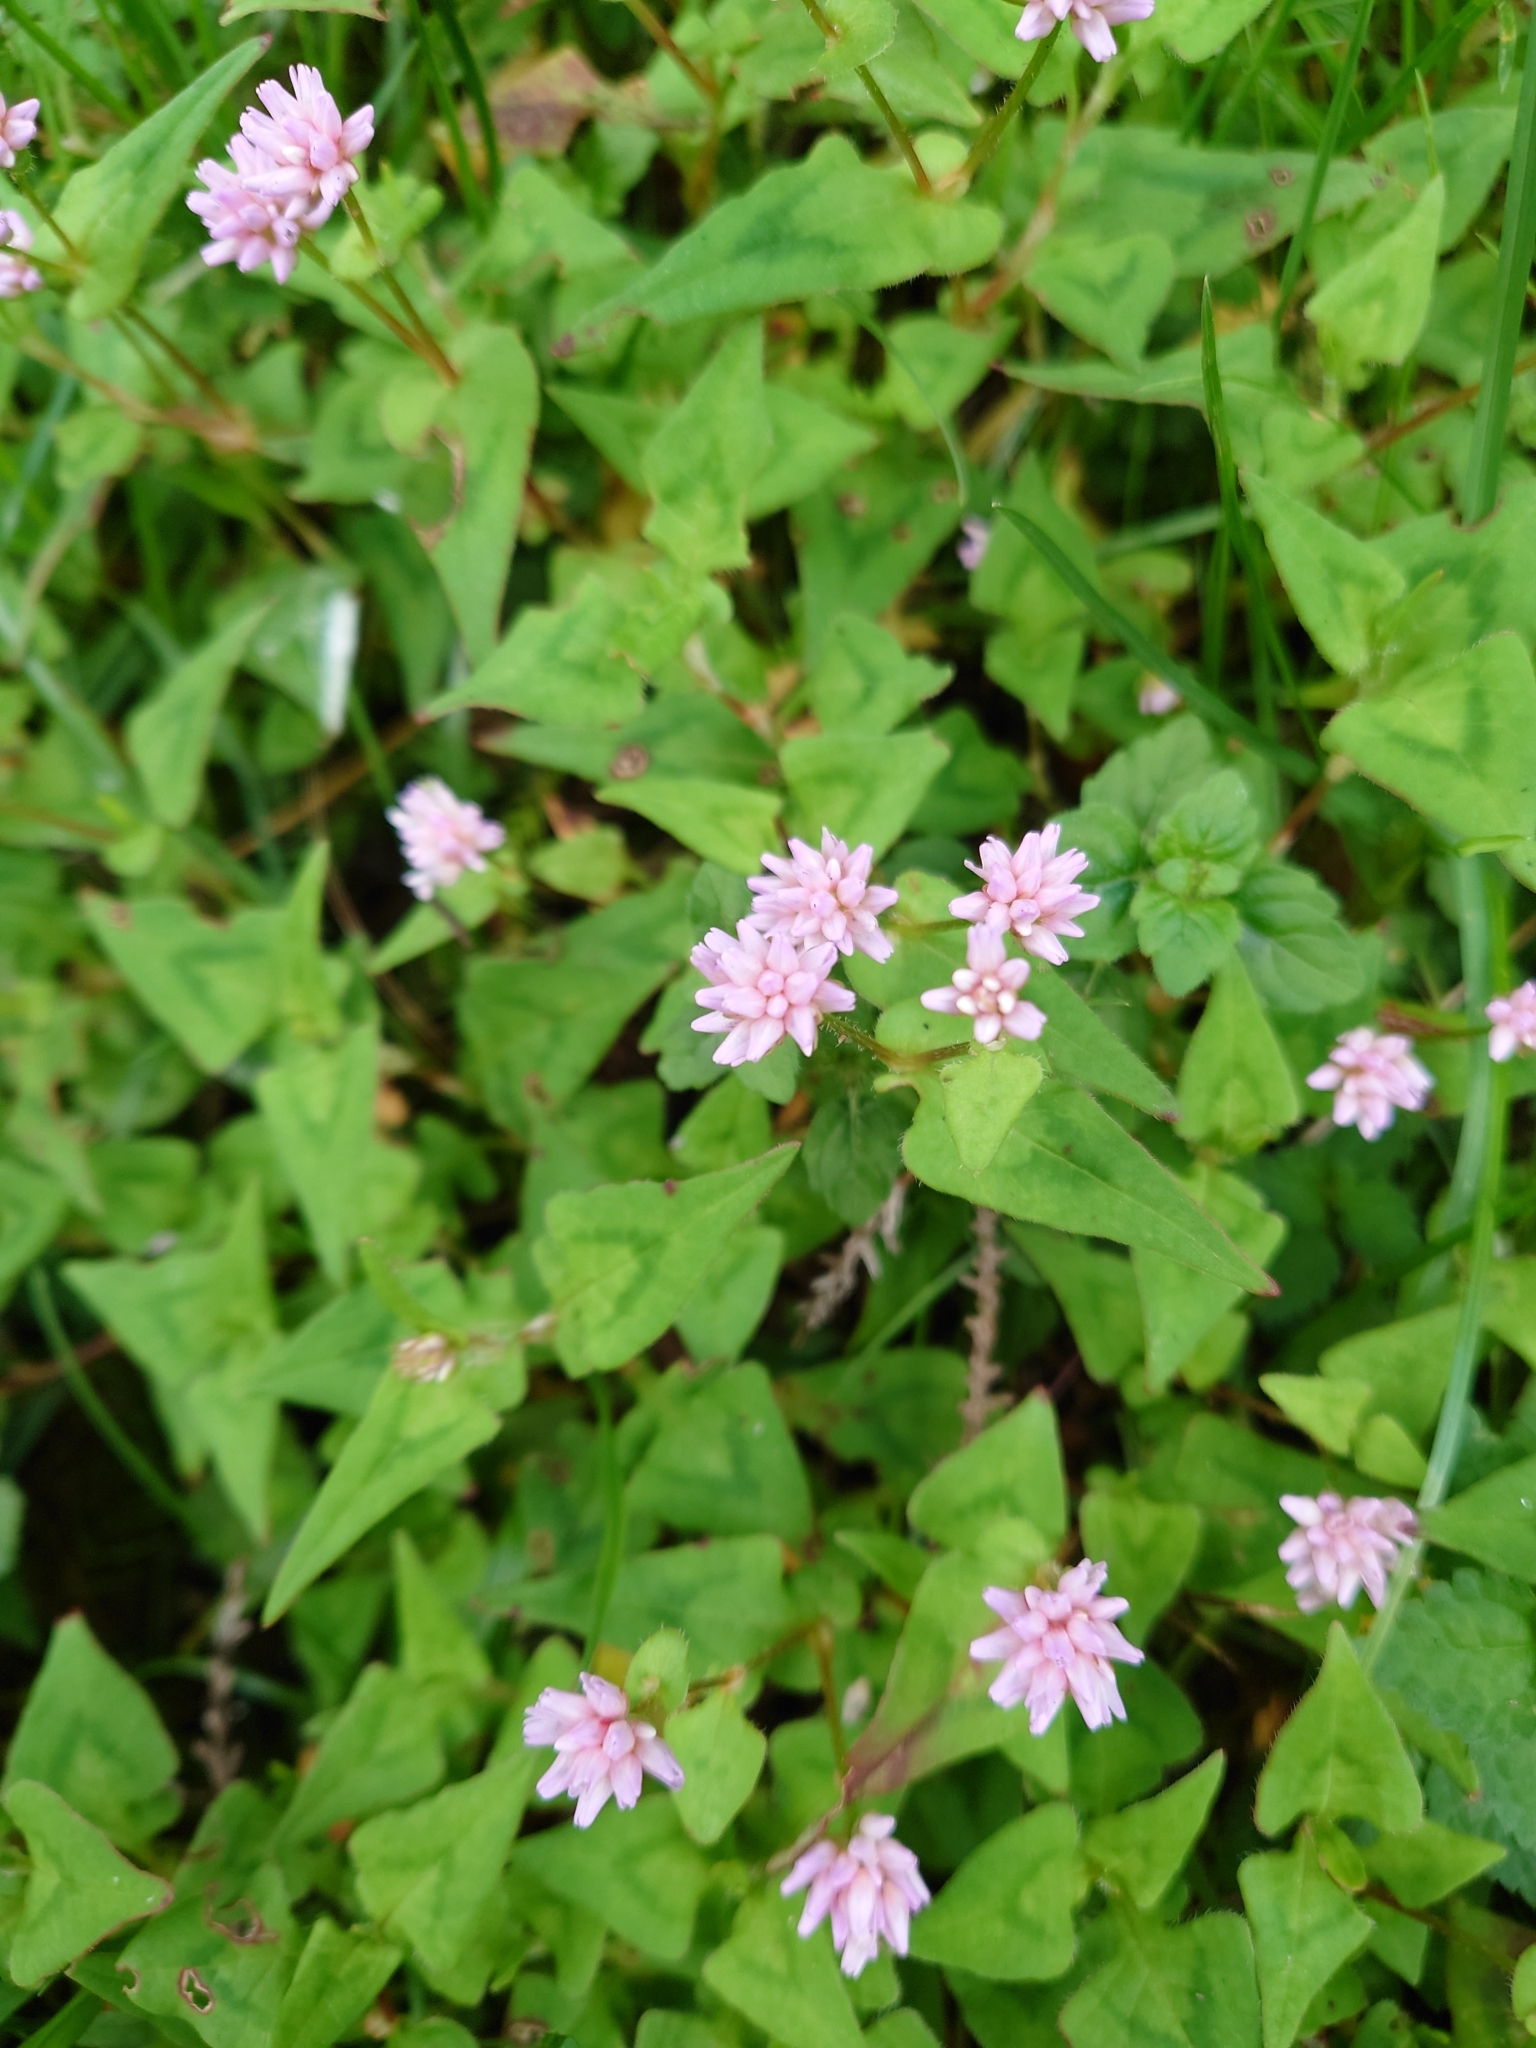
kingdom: Plantae
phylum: Tracheophyta
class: Magnoliopsida
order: Caryophyllales
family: Polygonaceae
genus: Persicaria
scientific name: Persicaria runcinata
